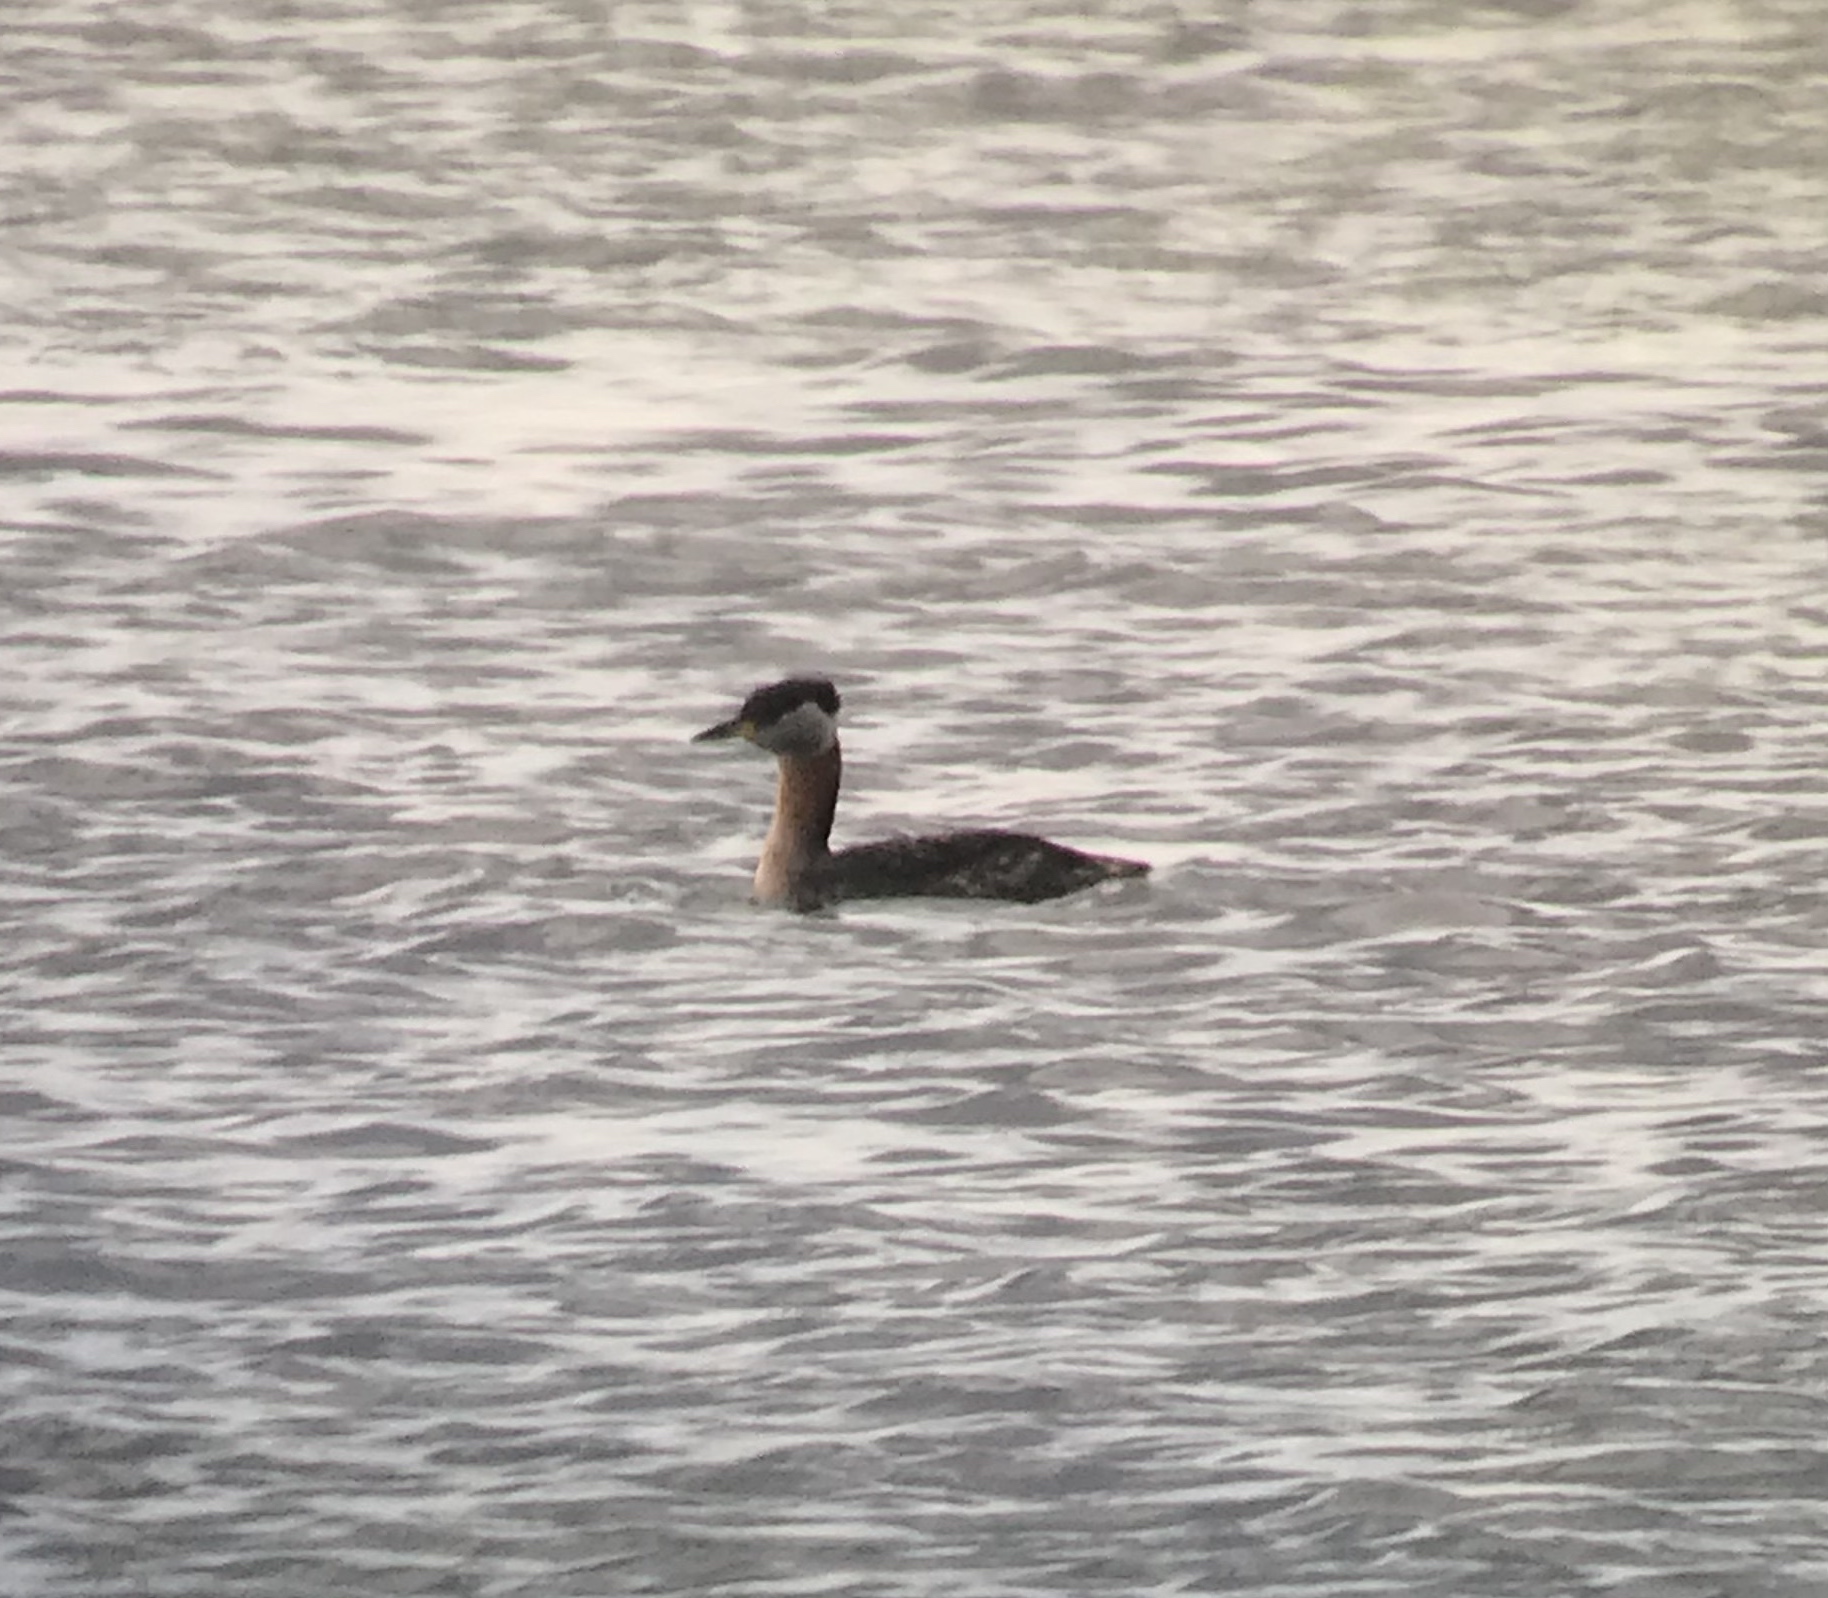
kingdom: Animalia
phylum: Chordata
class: Aves
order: Podicipediformes
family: Podicipedidae
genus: Podiceps
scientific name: Podiceps grisegena
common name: Red-necked grebe
